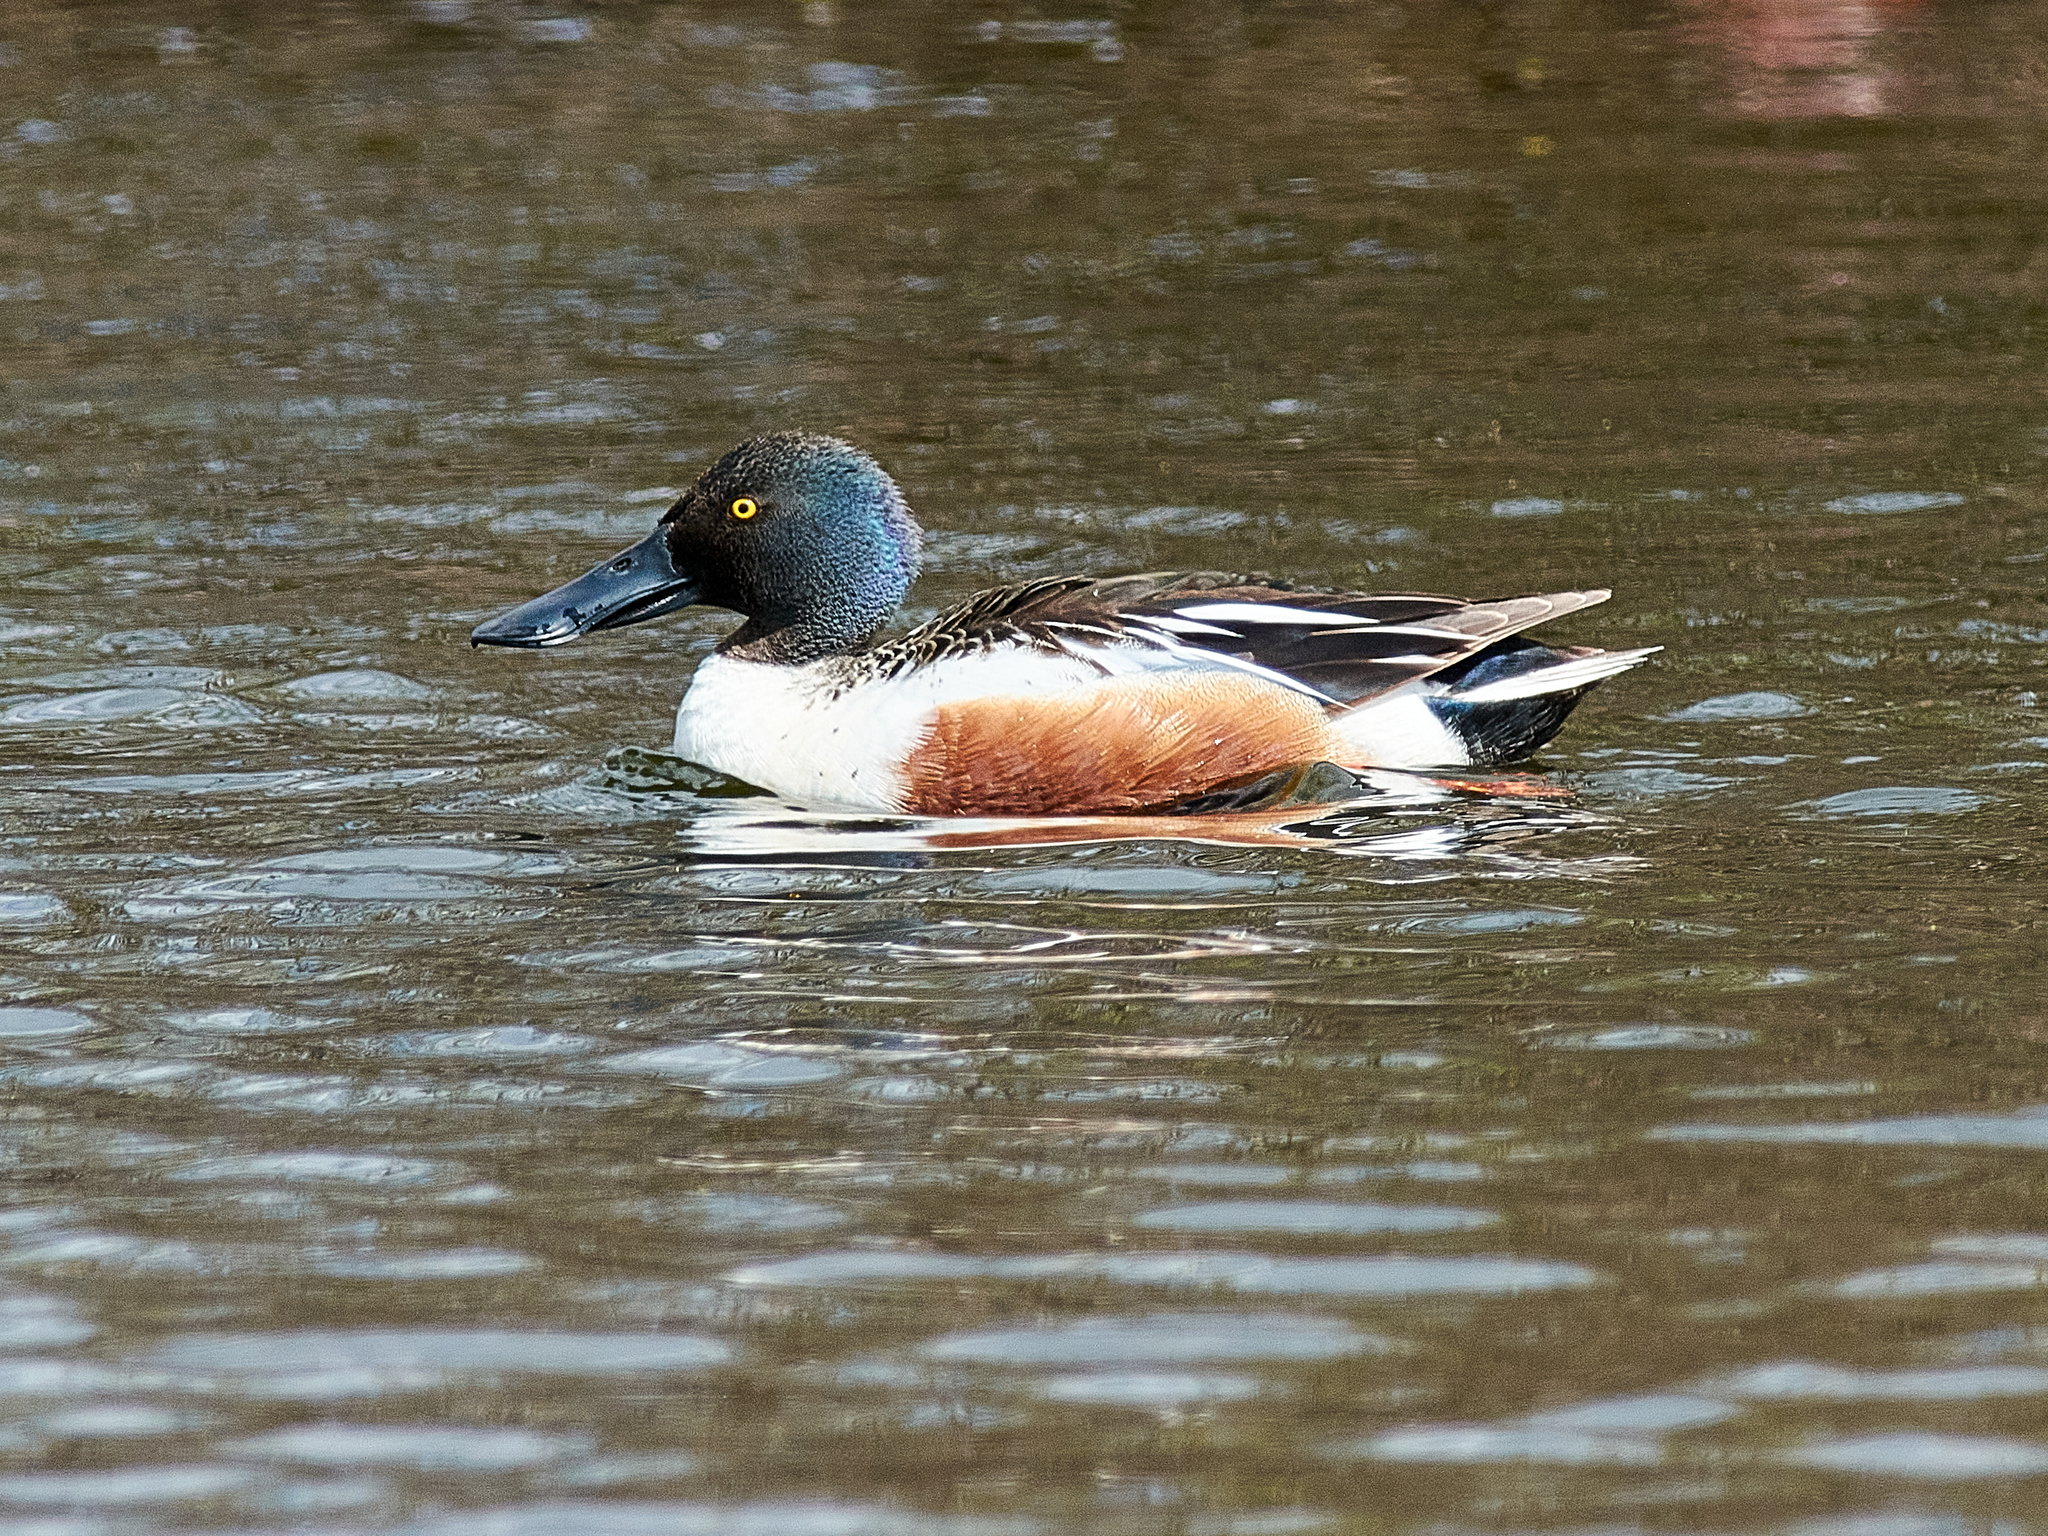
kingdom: Animalia
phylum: Chordata
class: Aves
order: Anseriformes
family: Anatidae
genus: Spatula
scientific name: Spatula clypeata
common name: Northern shoveler
